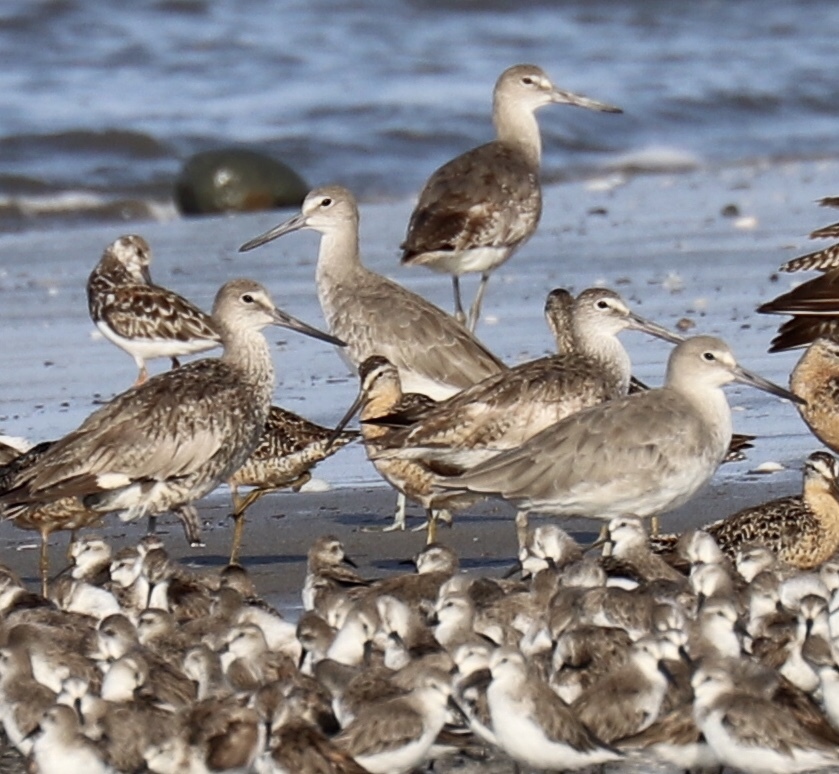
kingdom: Animalia
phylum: Chordata
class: Aves
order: Charadriiformes
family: Scolopacidae
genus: Tringa
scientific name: Tringa semipalmata
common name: Willet
